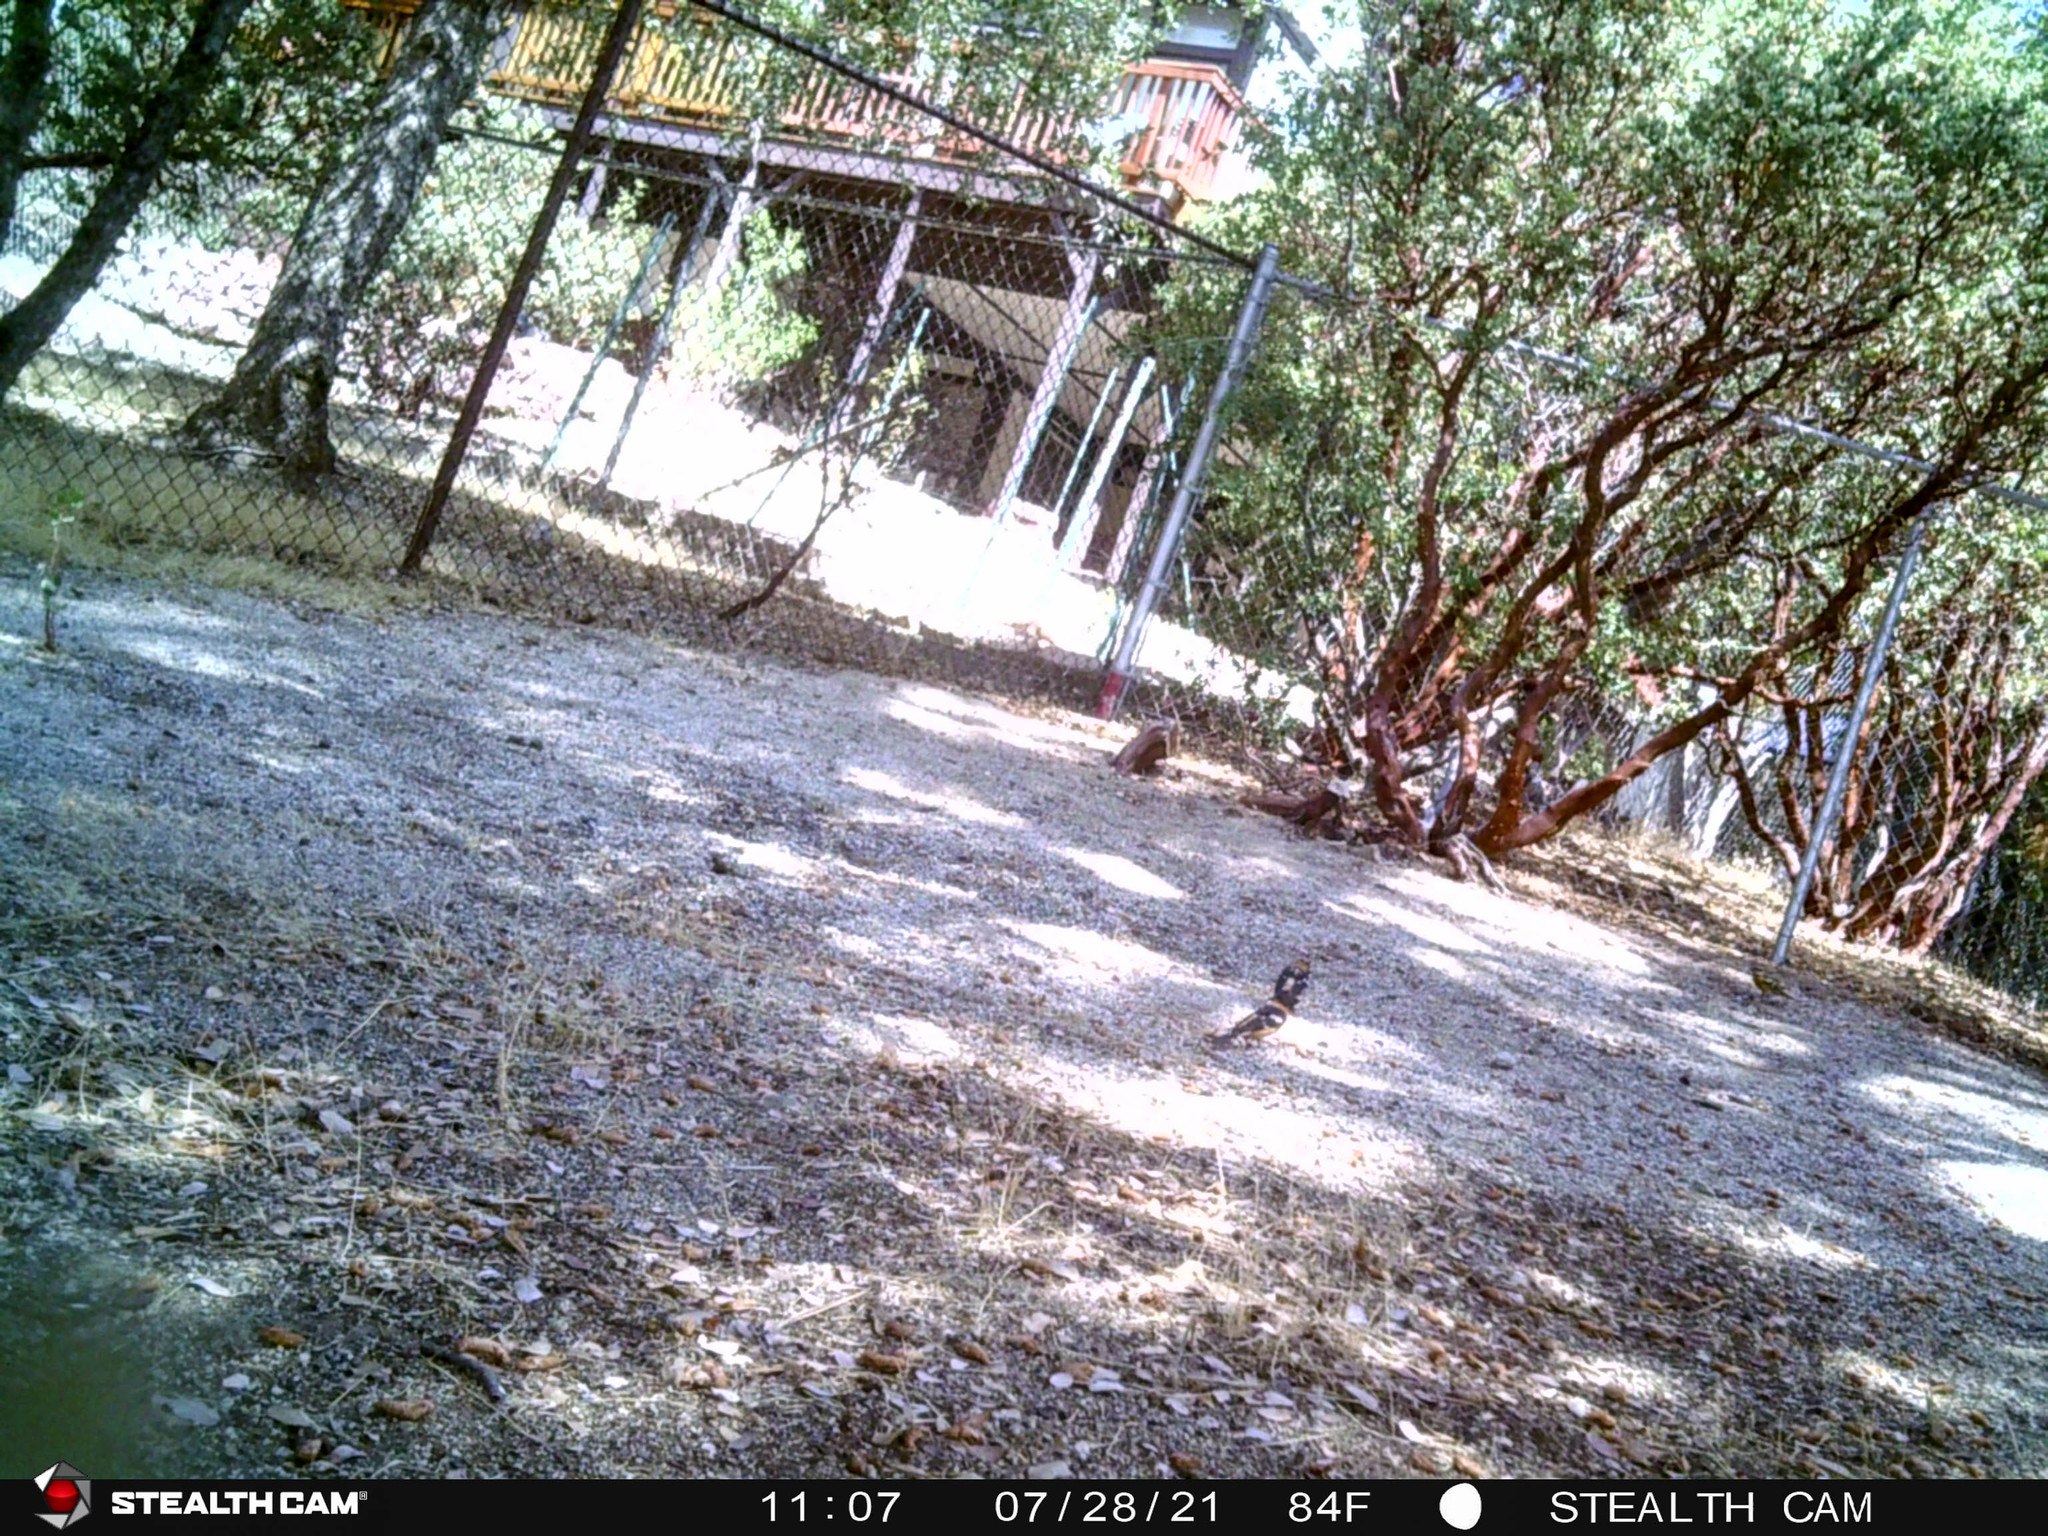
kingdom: Animalia
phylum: Chordata
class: Aves
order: Passeriformes
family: Cardinalidae
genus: Pheucticus
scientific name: Pheucticus melanocephalus
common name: Black-headed grosbeak
